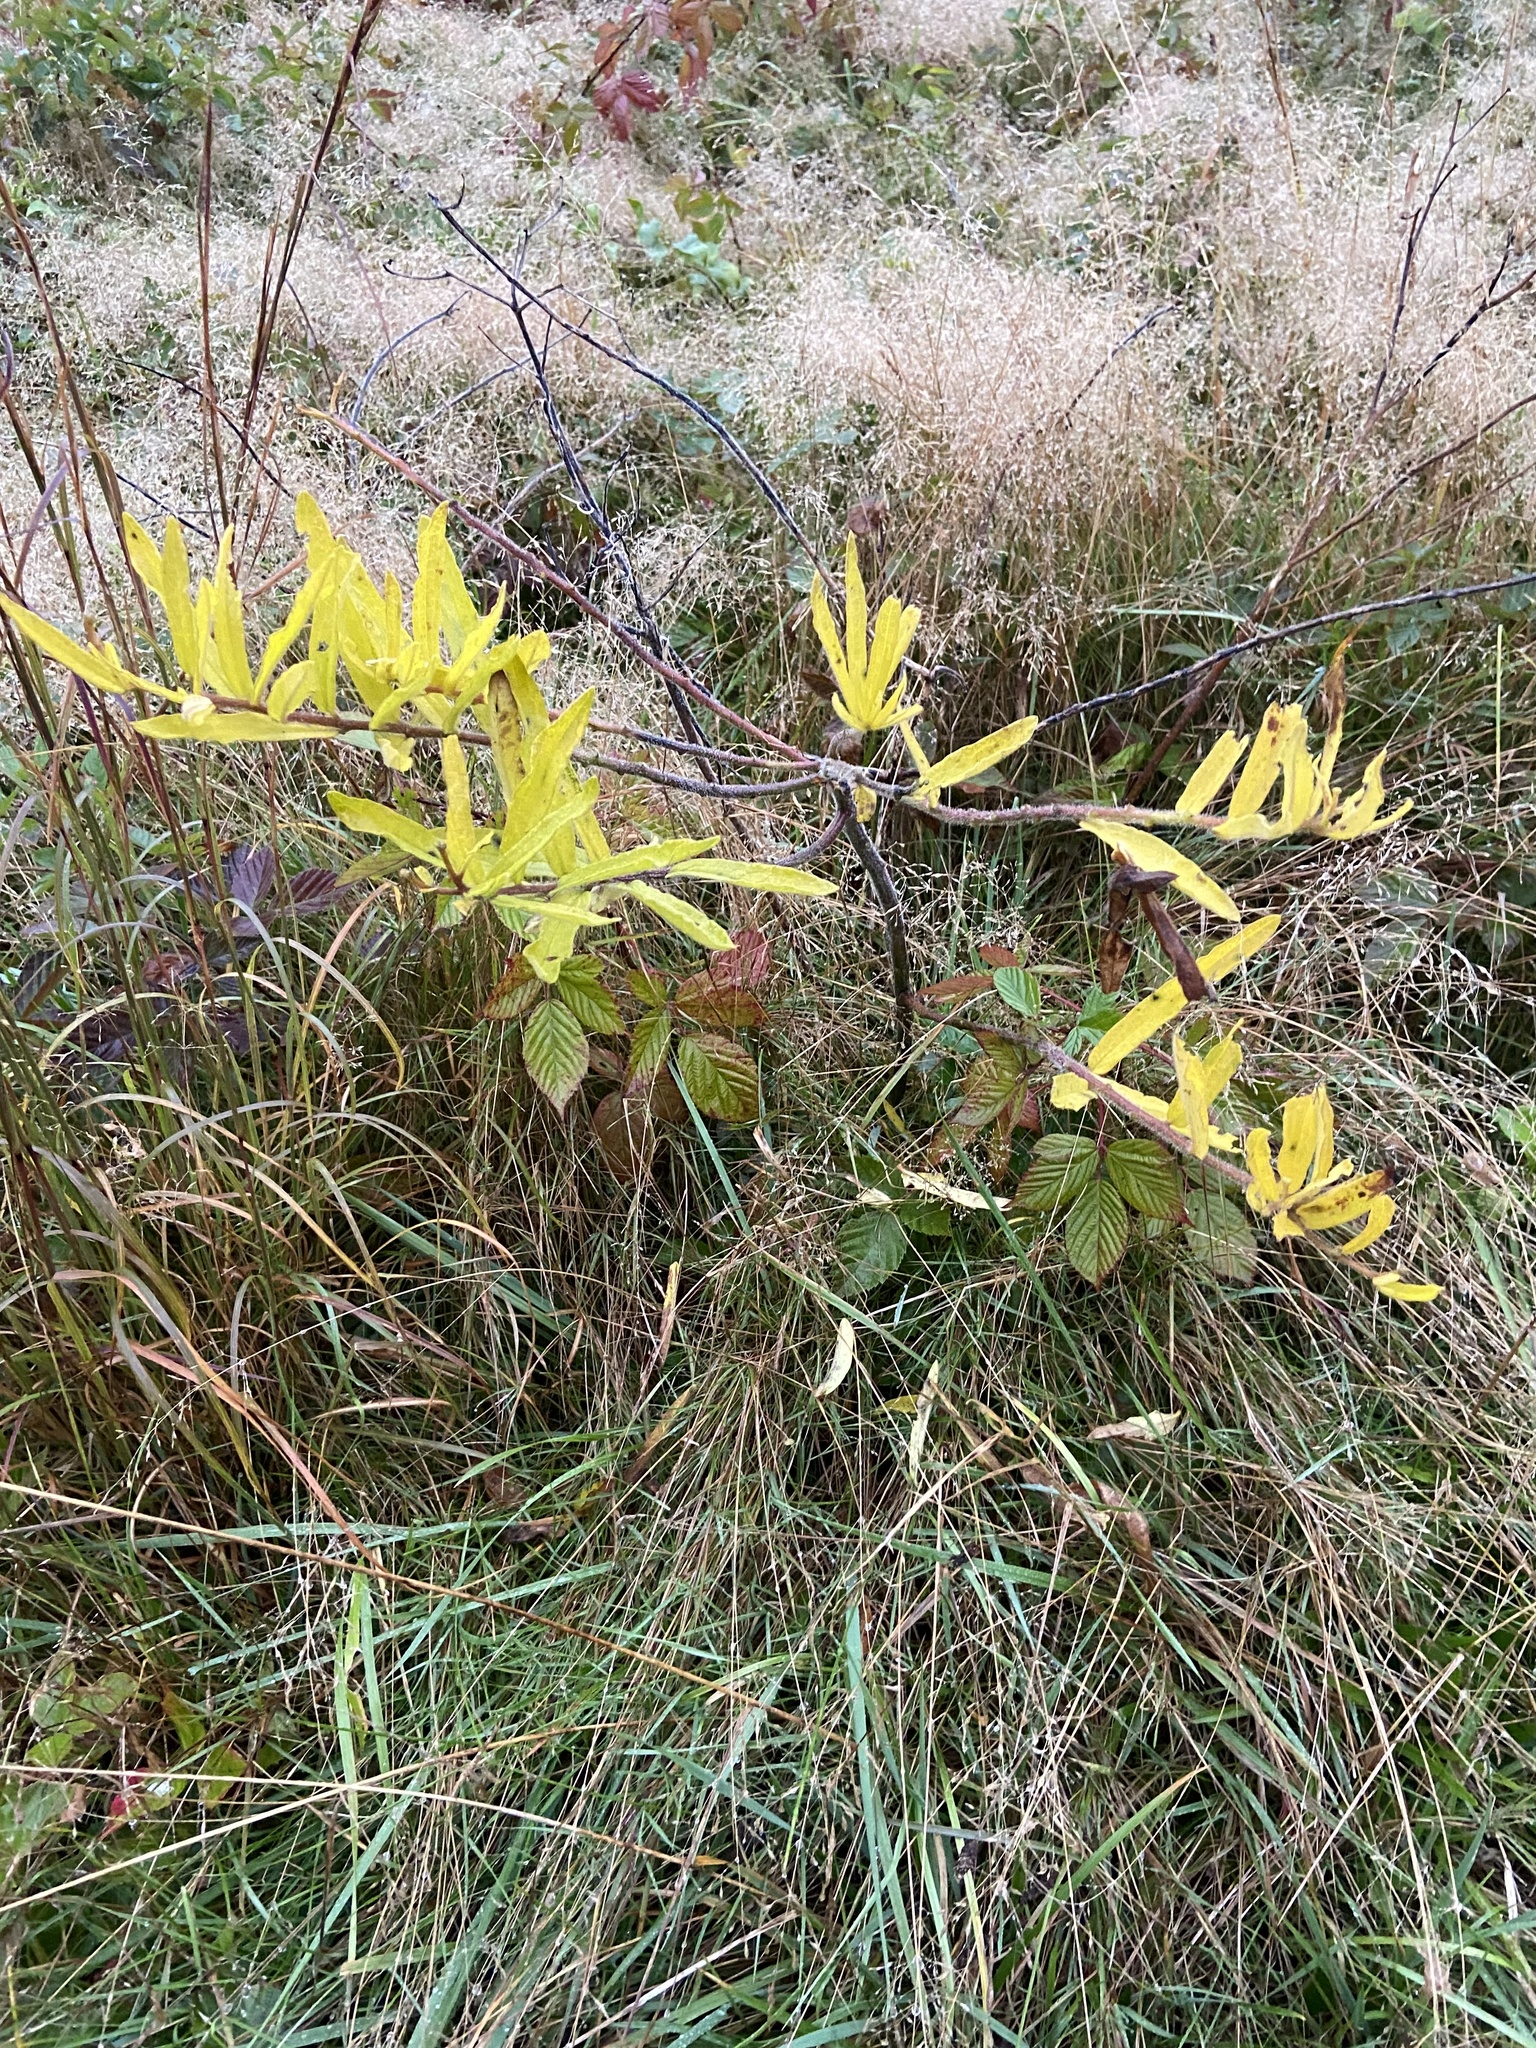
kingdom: Plantae
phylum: Tracheophyta
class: Magnoliopsida
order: Gentianales
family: Apocynaceae
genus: Asclepias
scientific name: Asclepias tuberosa
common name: Butterfly milkweed
